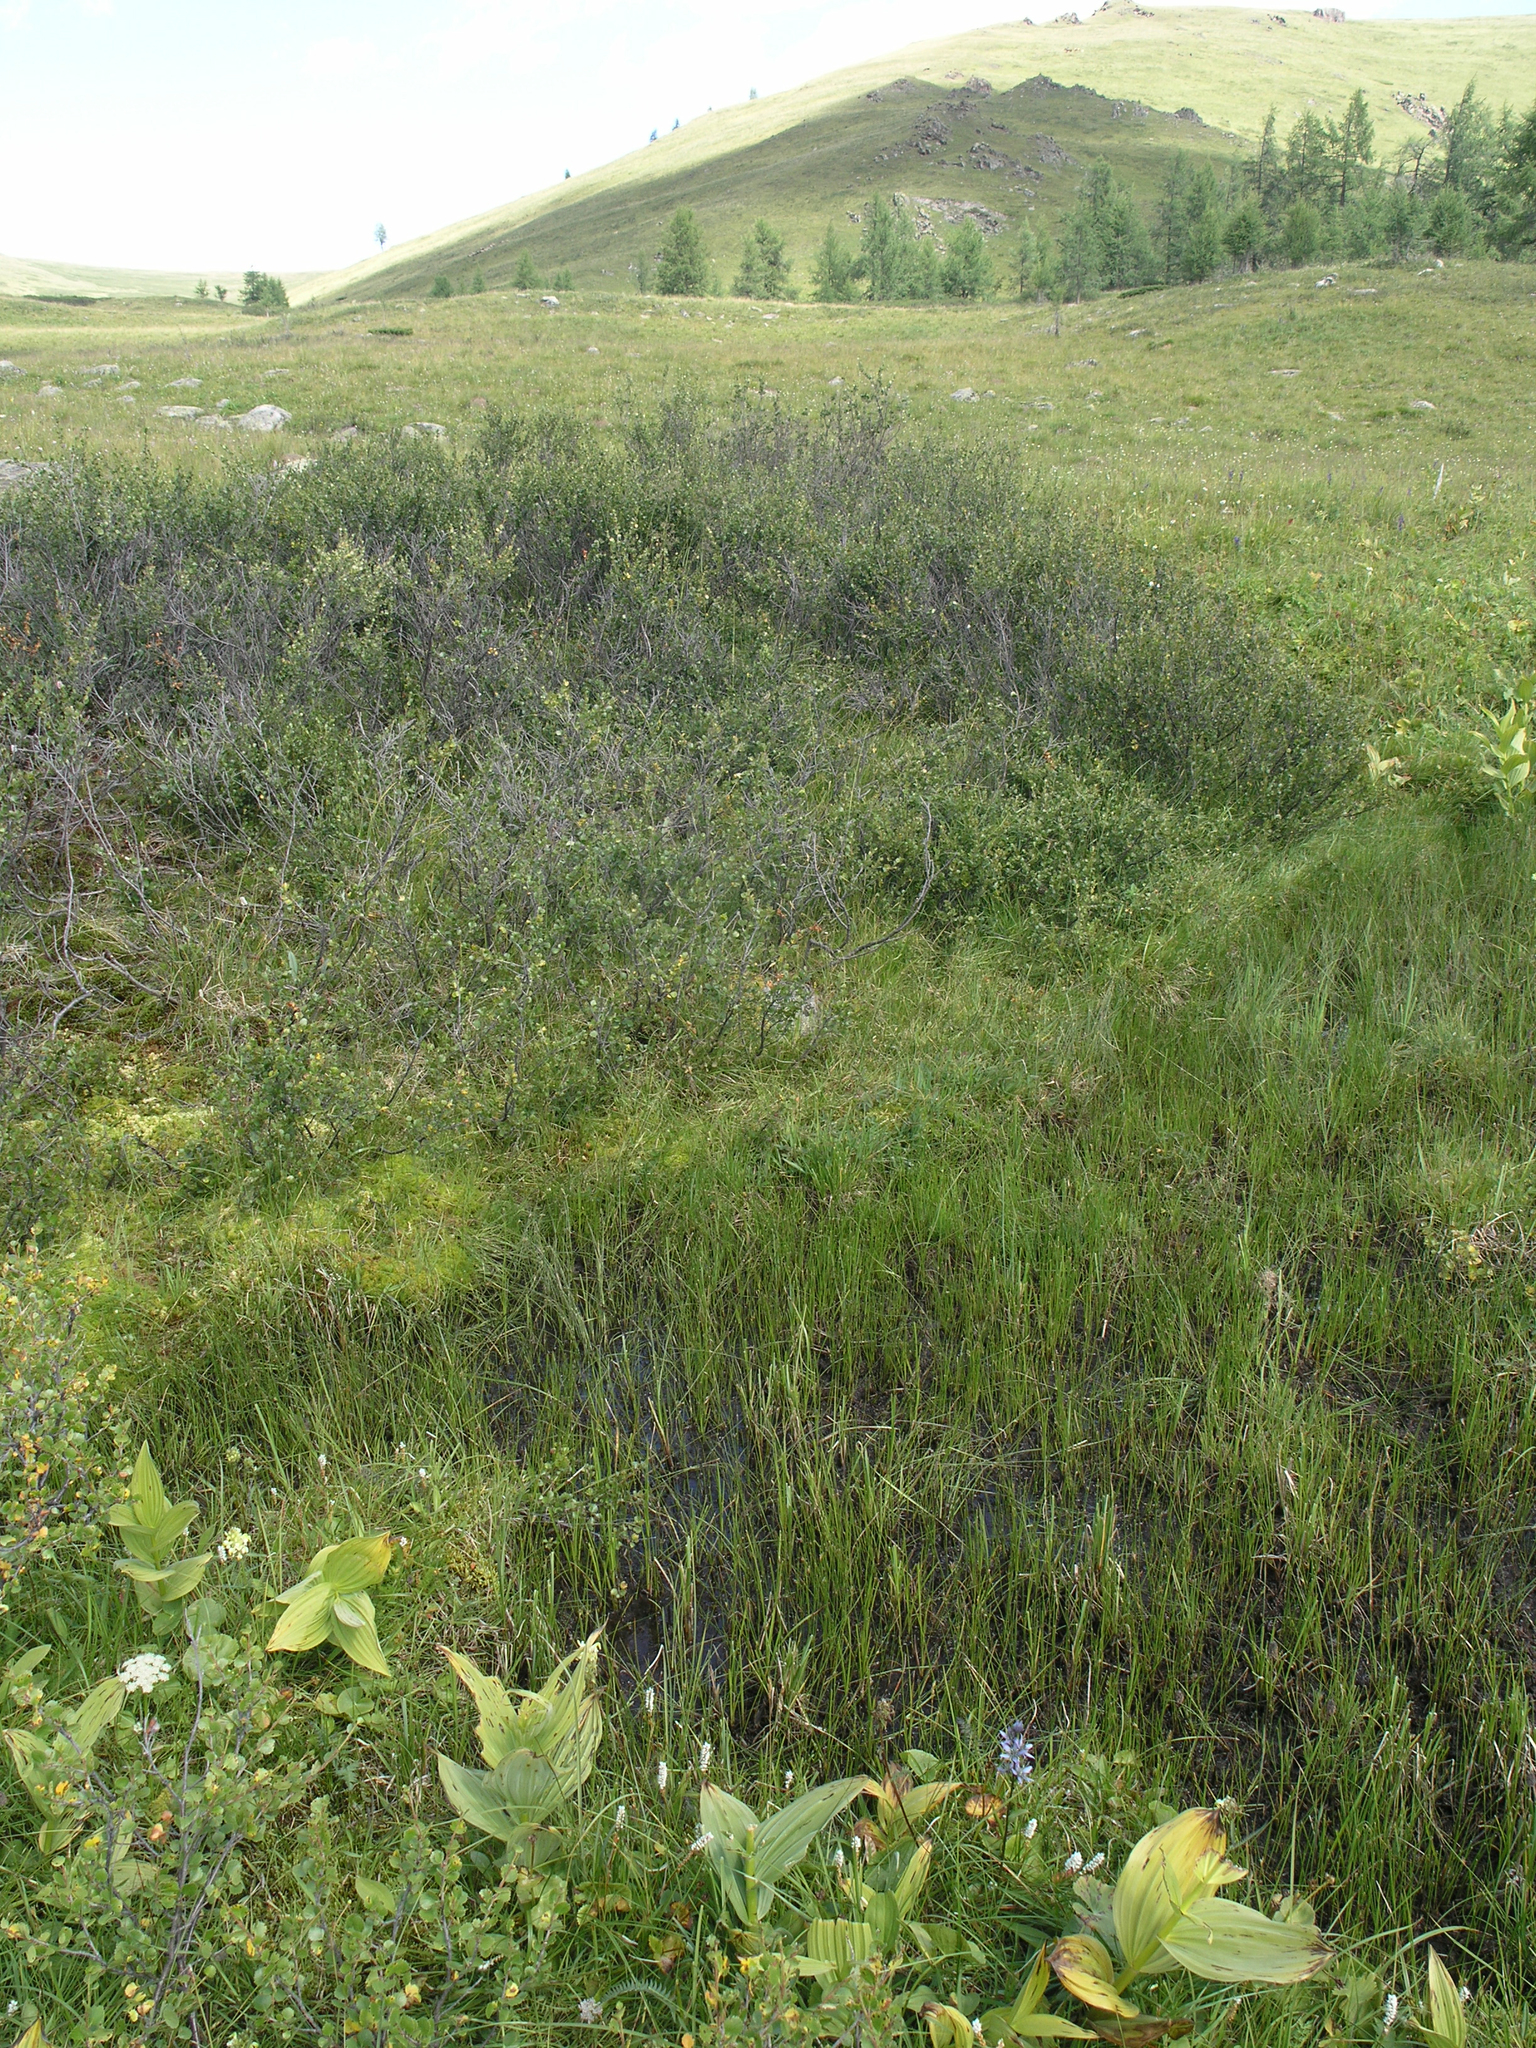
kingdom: Plantae
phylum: Tracheophyta
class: Liliopsida
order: Liliales
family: Melanthiaceae
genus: Veratrum
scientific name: Veratrum lobelianum
